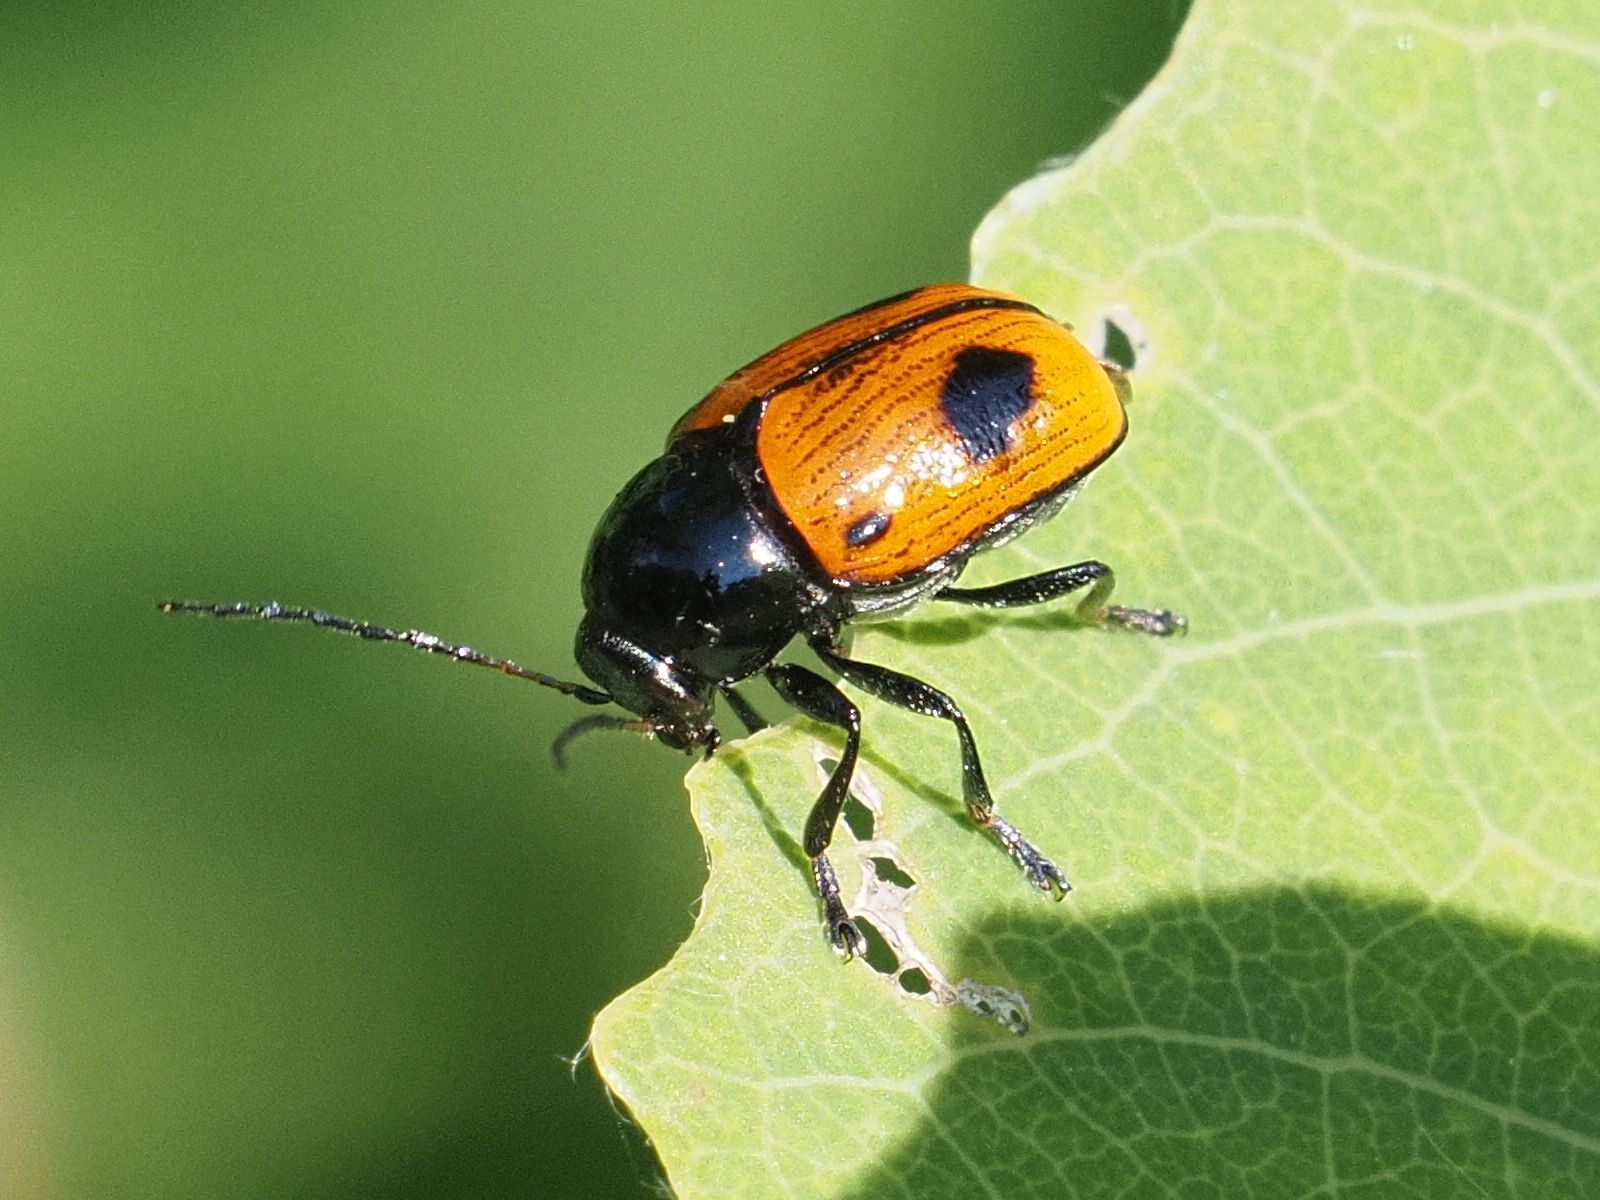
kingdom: Animalia
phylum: Arthropoda
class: Insecta
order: Coleoptera
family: Chrysomelidae
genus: Chiridopsis
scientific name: Chiridopsis bipunctata
